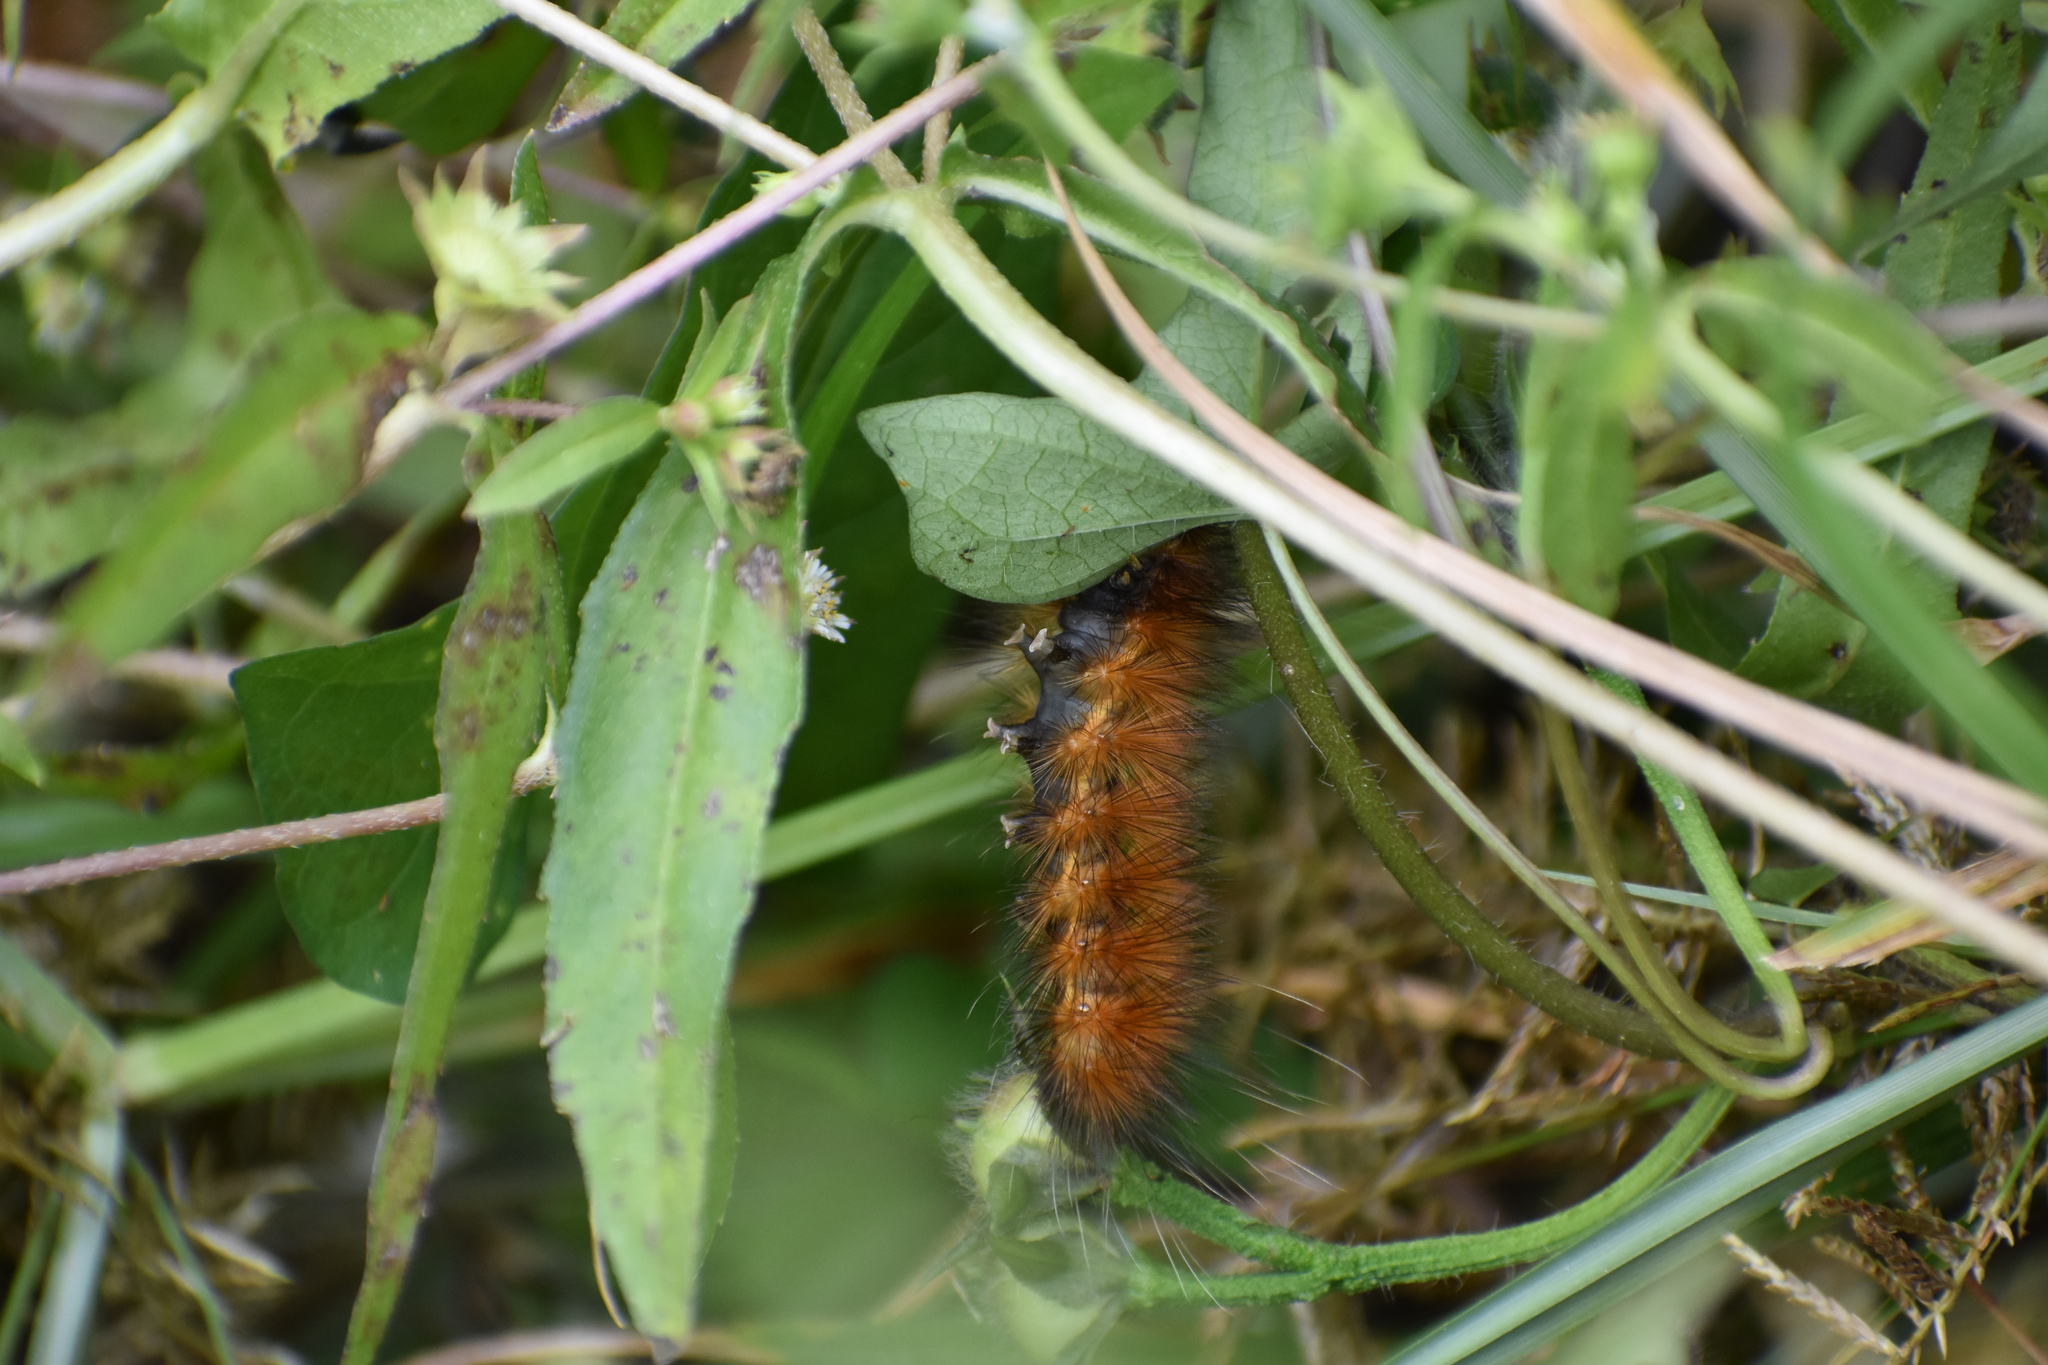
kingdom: Animalia
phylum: Arthropoda
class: Insecta
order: Lepidoptera
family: Erebidae
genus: Spilosoma
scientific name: Spilosoma virginica
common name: Virginia tiger moth
